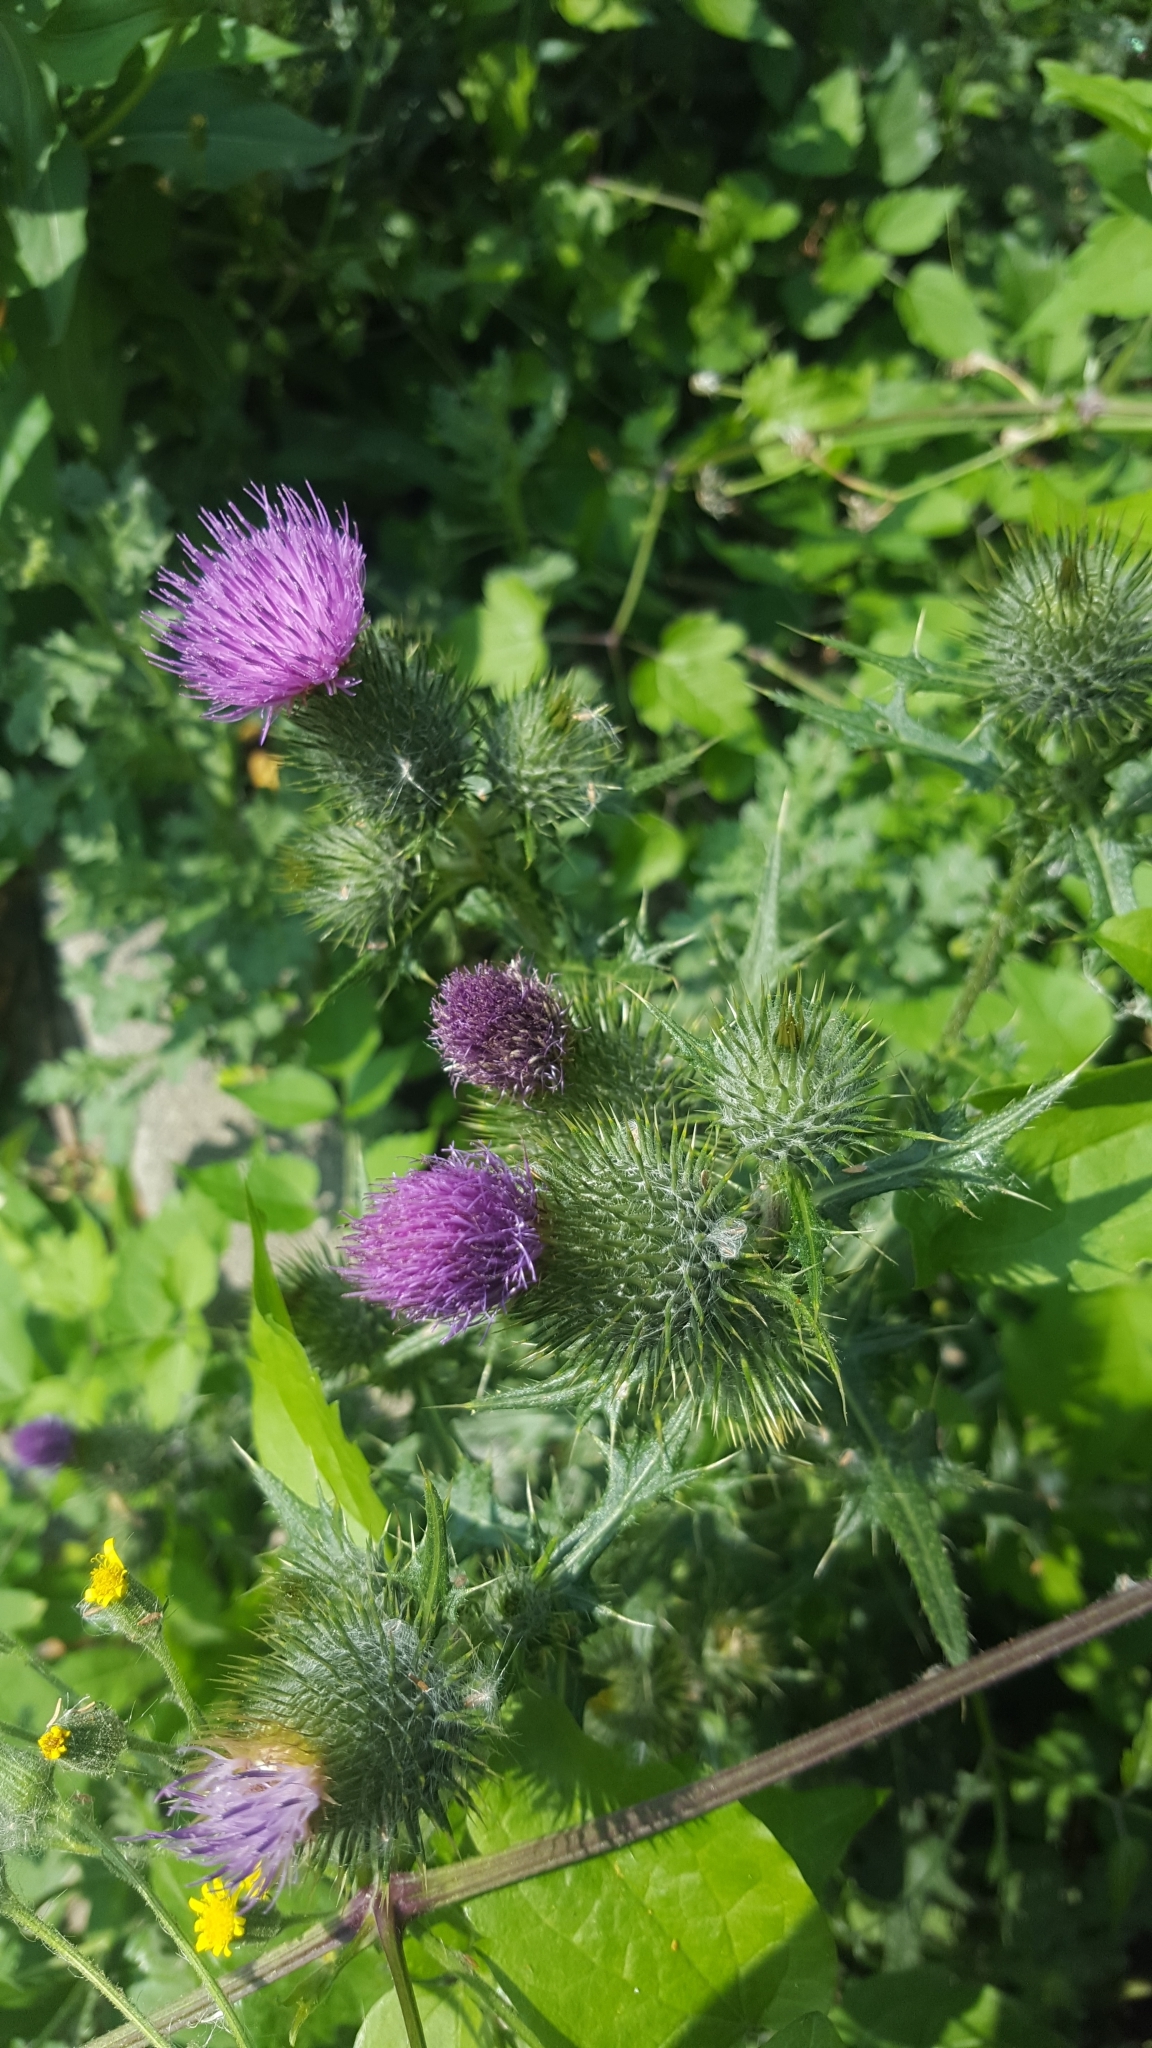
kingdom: Plantae
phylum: Tracheophyta
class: Magnoliopsida
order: Asterales
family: Asteraceae
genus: Cirsium
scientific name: Cirsium vulgare
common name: Bull thistle
